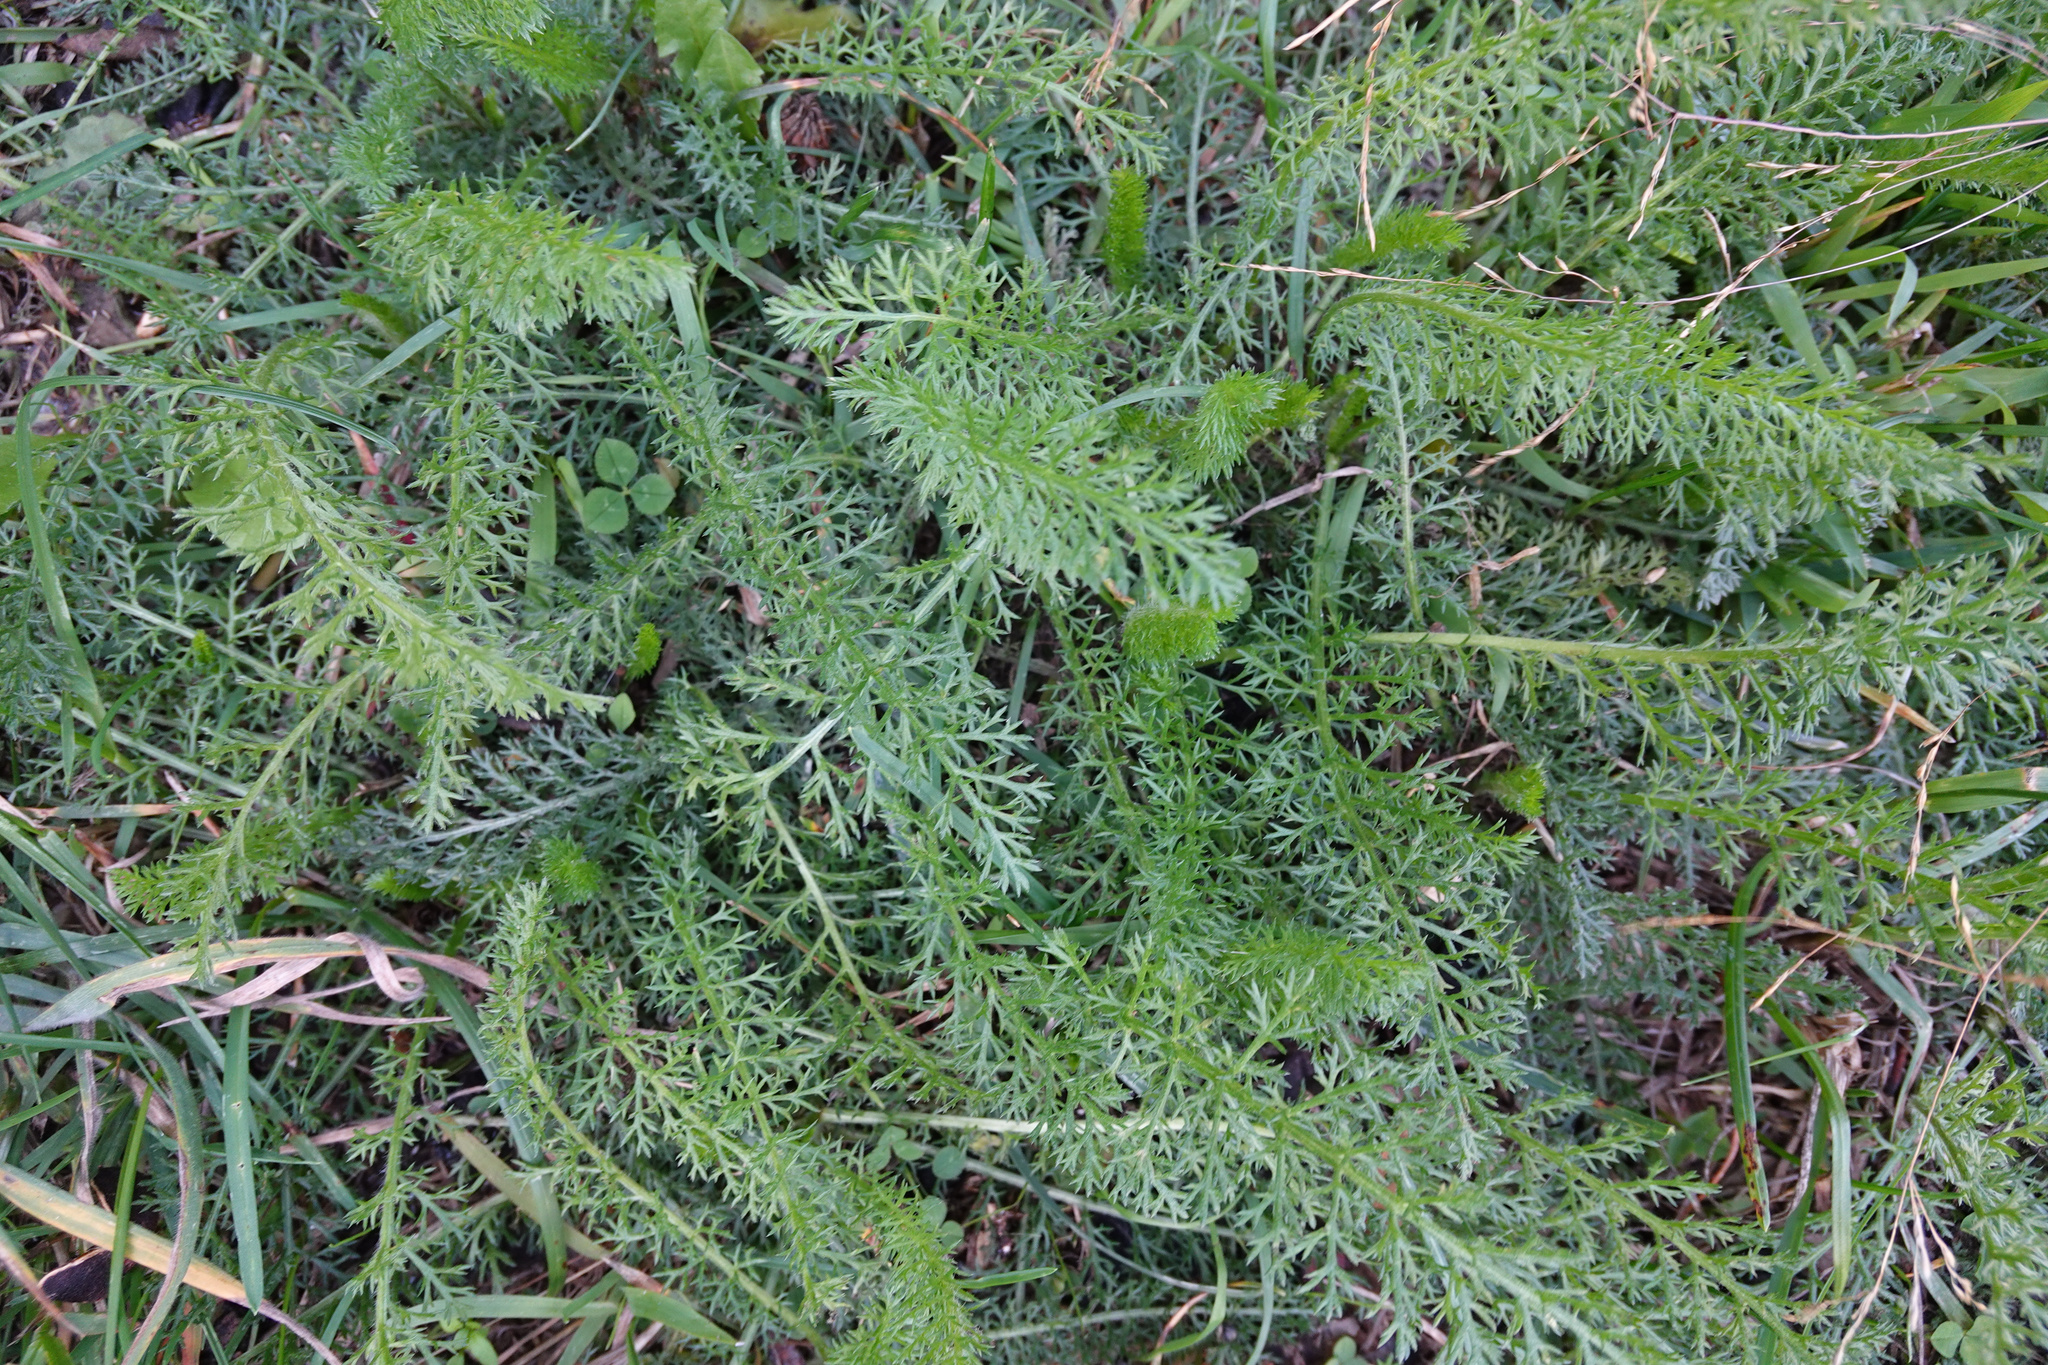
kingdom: Plantae
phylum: Tracheophyta
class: Magnoliopsida
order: Asterales
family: Asteraceae
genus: Achillea
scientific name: Achillea millefolium
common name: Yarrow
